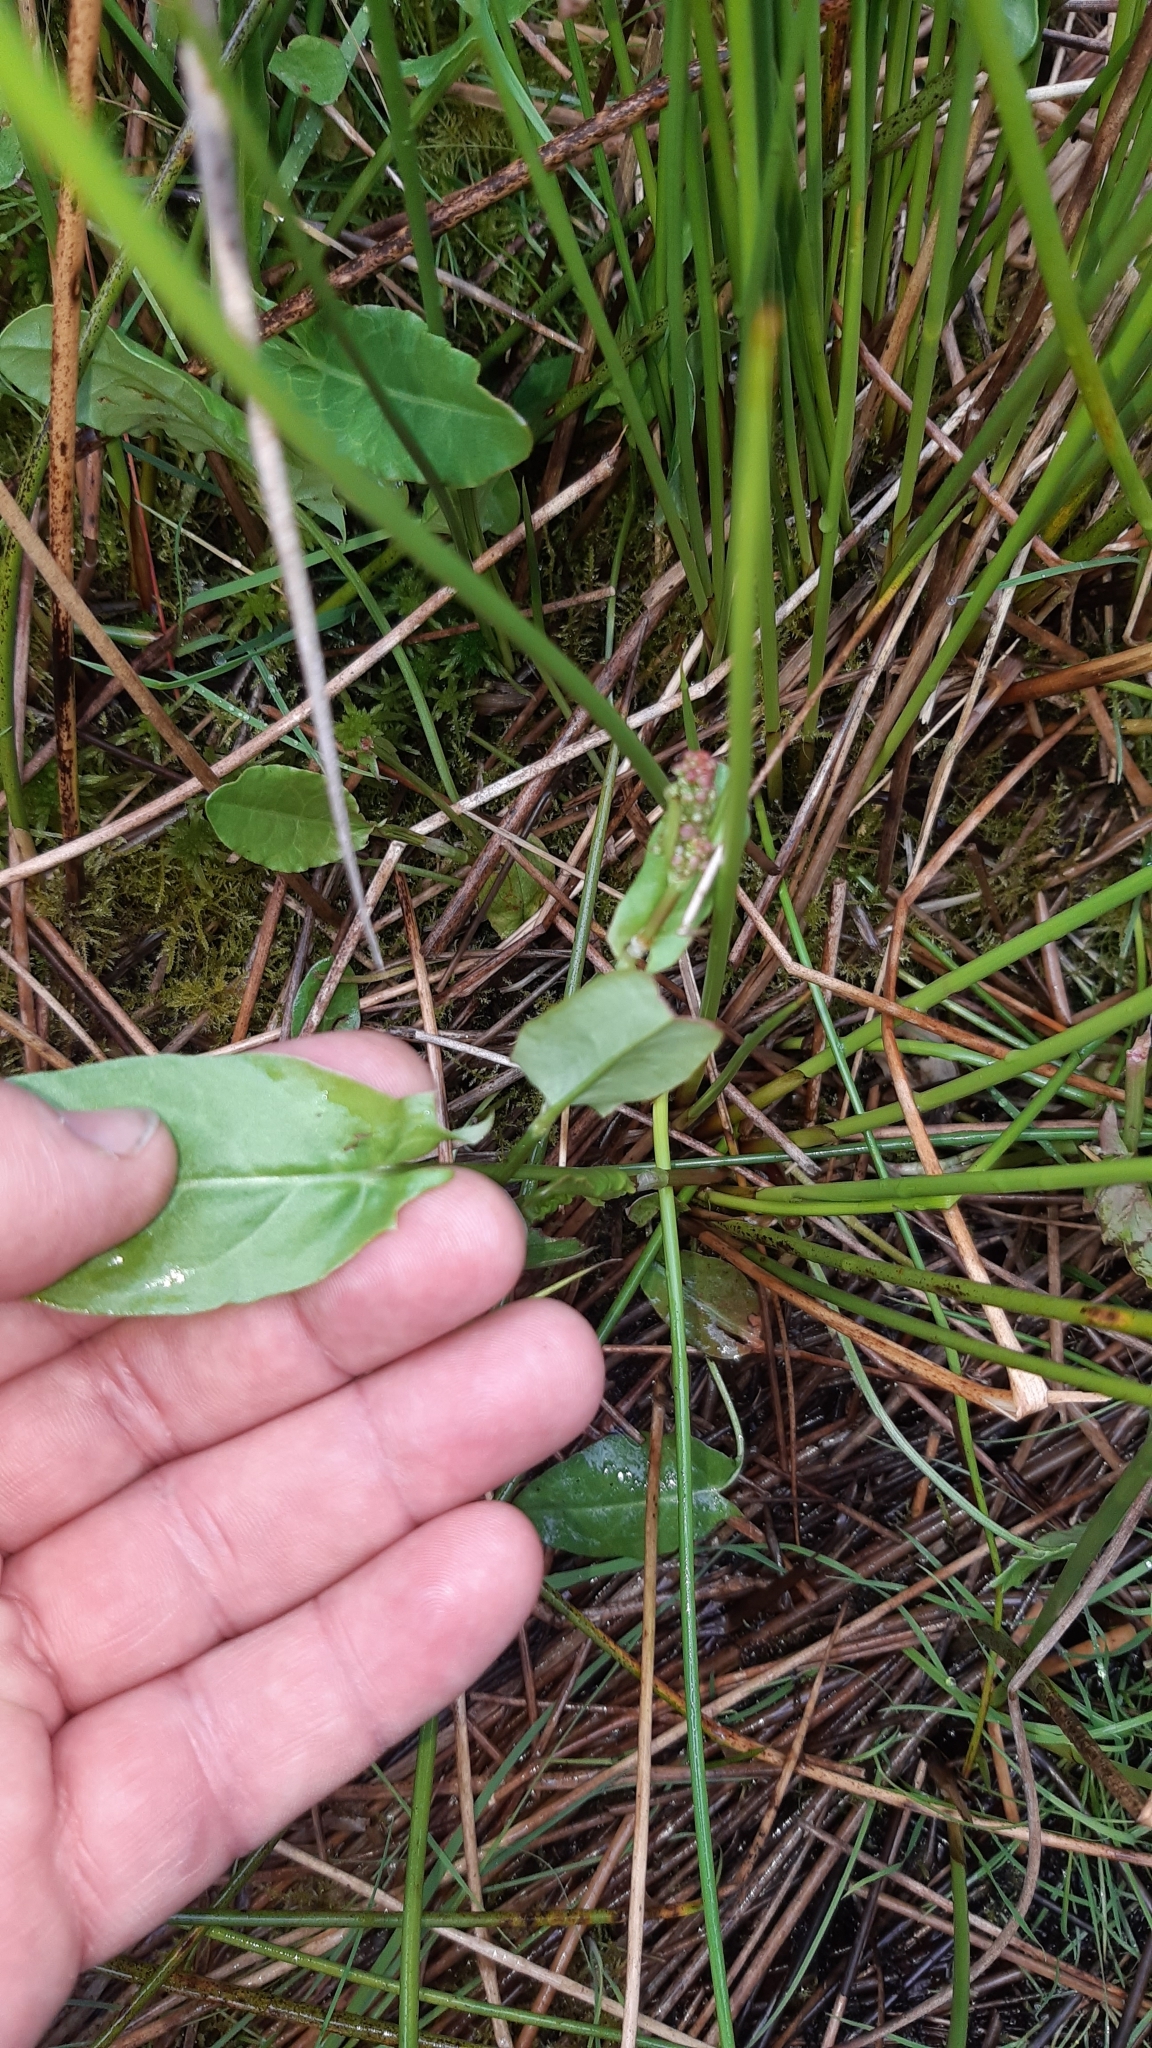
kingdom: Plantae
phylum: Tracheophyta
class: Magnoliopsida
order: Caryophyllales
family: Polygonaceae
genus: Rumex
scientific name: Rumex acetosa
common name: Garden sorrel
